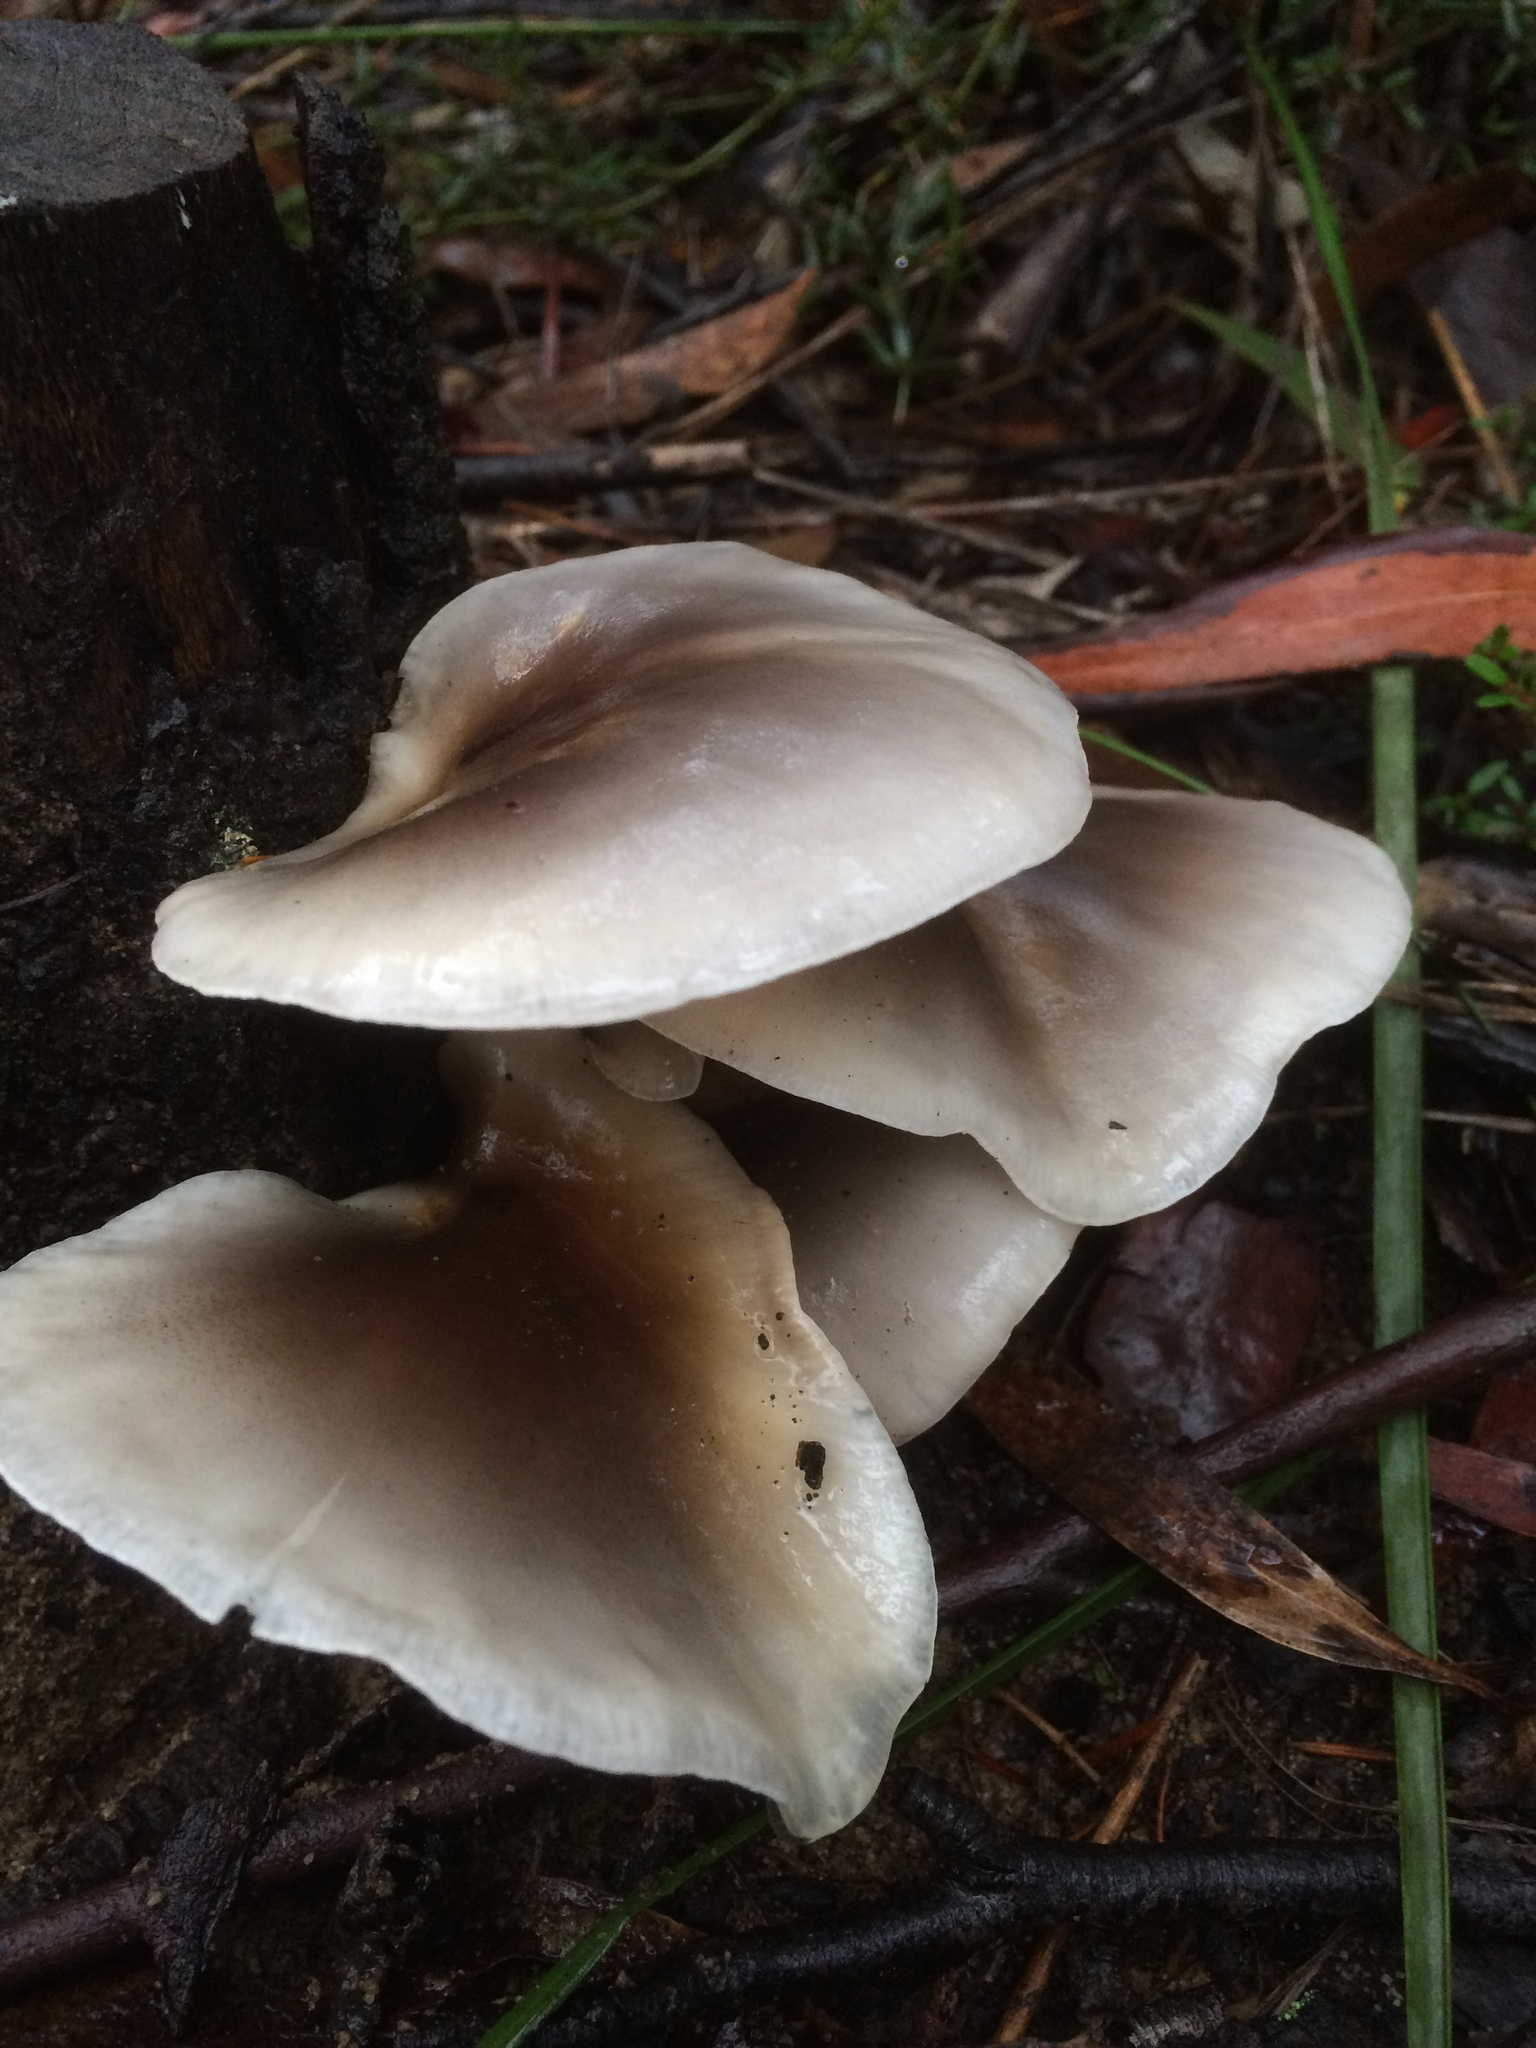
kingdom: Fungi
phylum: Basidiomycota
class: Agaricomycetes
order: Agaricales
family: Omphalotaceae
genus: Omphalotus
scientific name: Omphalotus nidiformis
